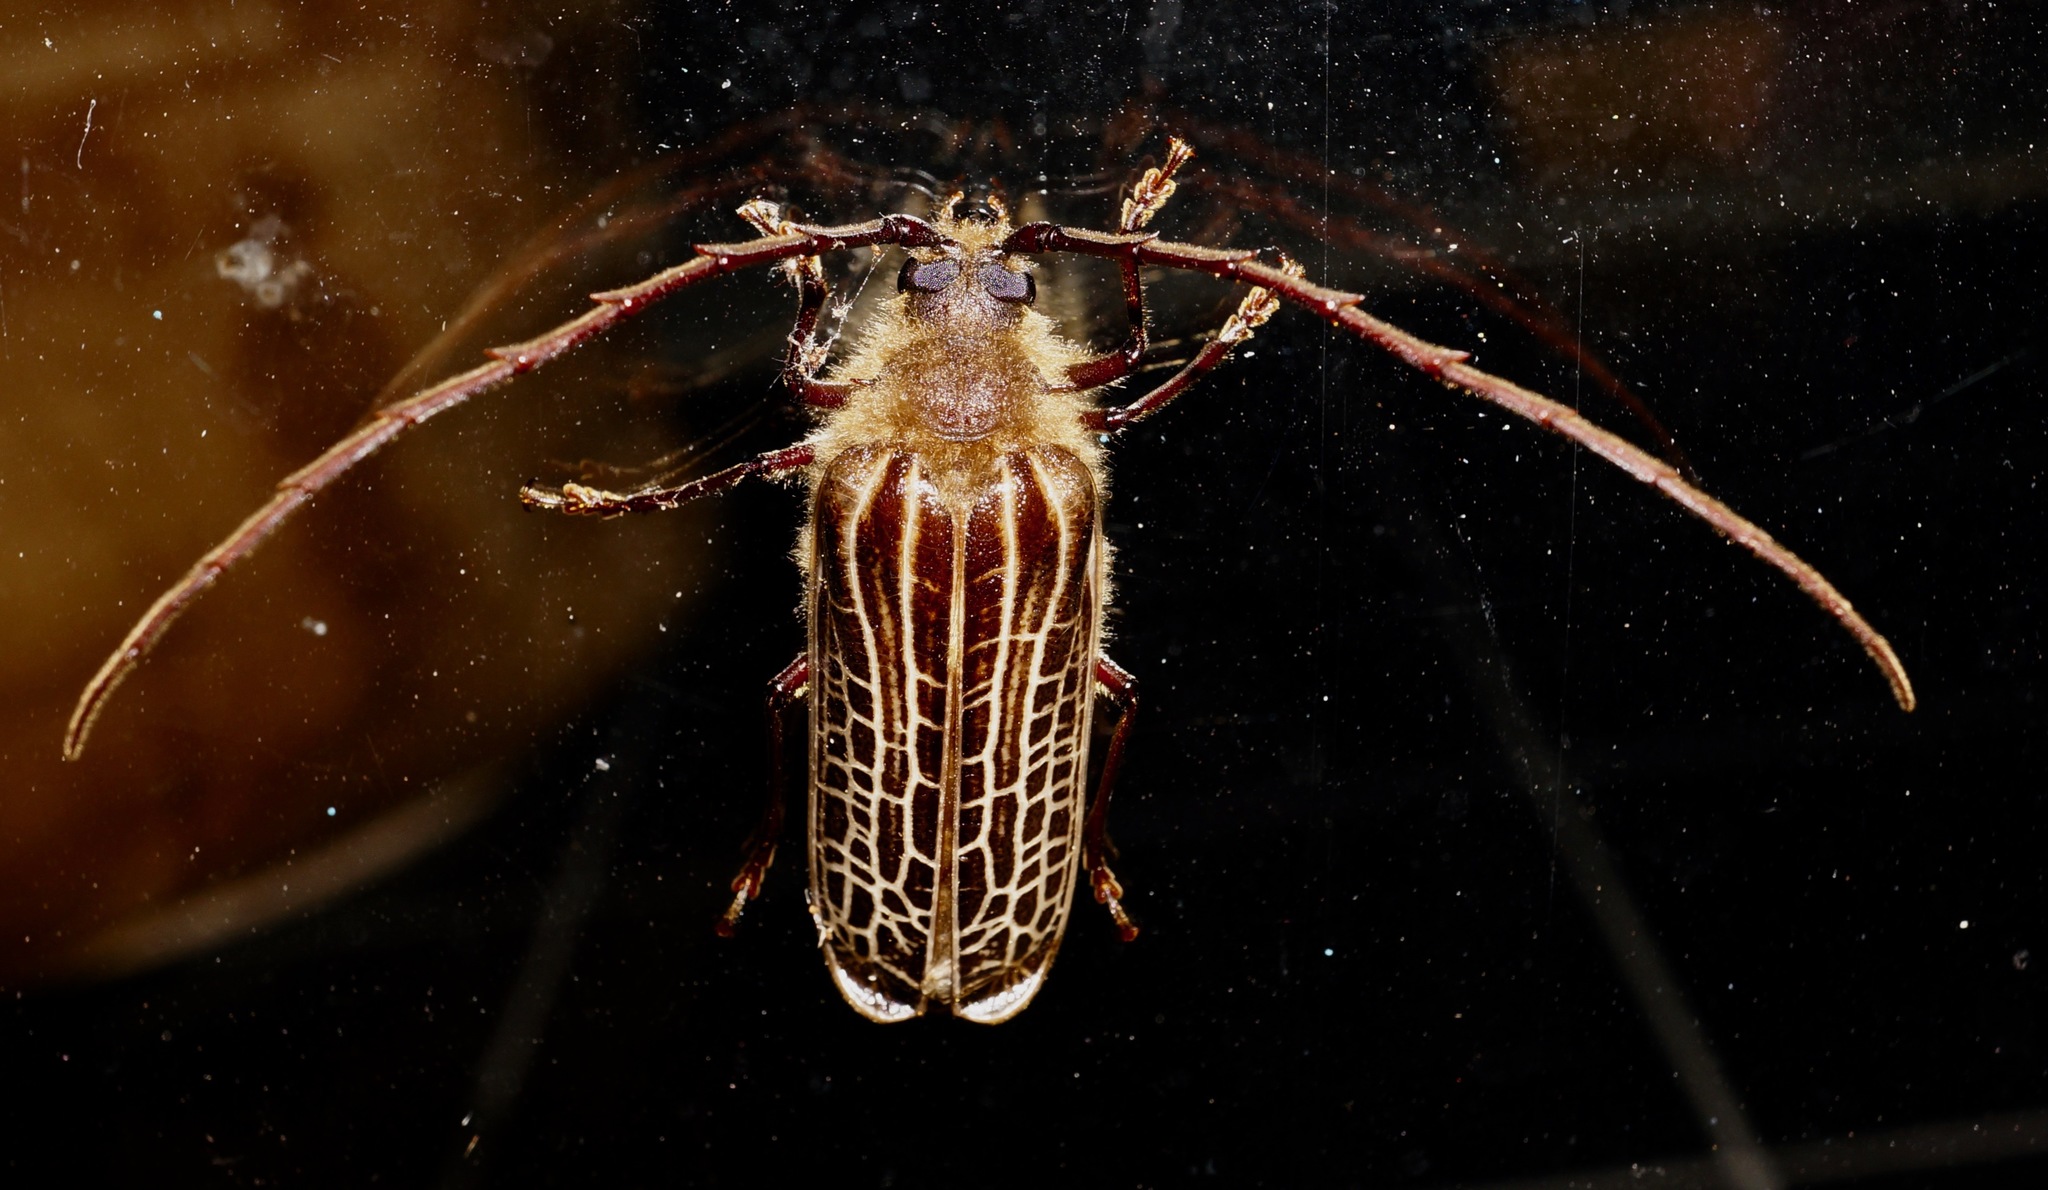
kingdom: Animalia
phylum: Arthropoda
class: Insecta
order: Coleoptera
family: Cerambycidae
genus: Prionoplus
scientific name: Prionoplus reticularis
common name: Huhu beetle
